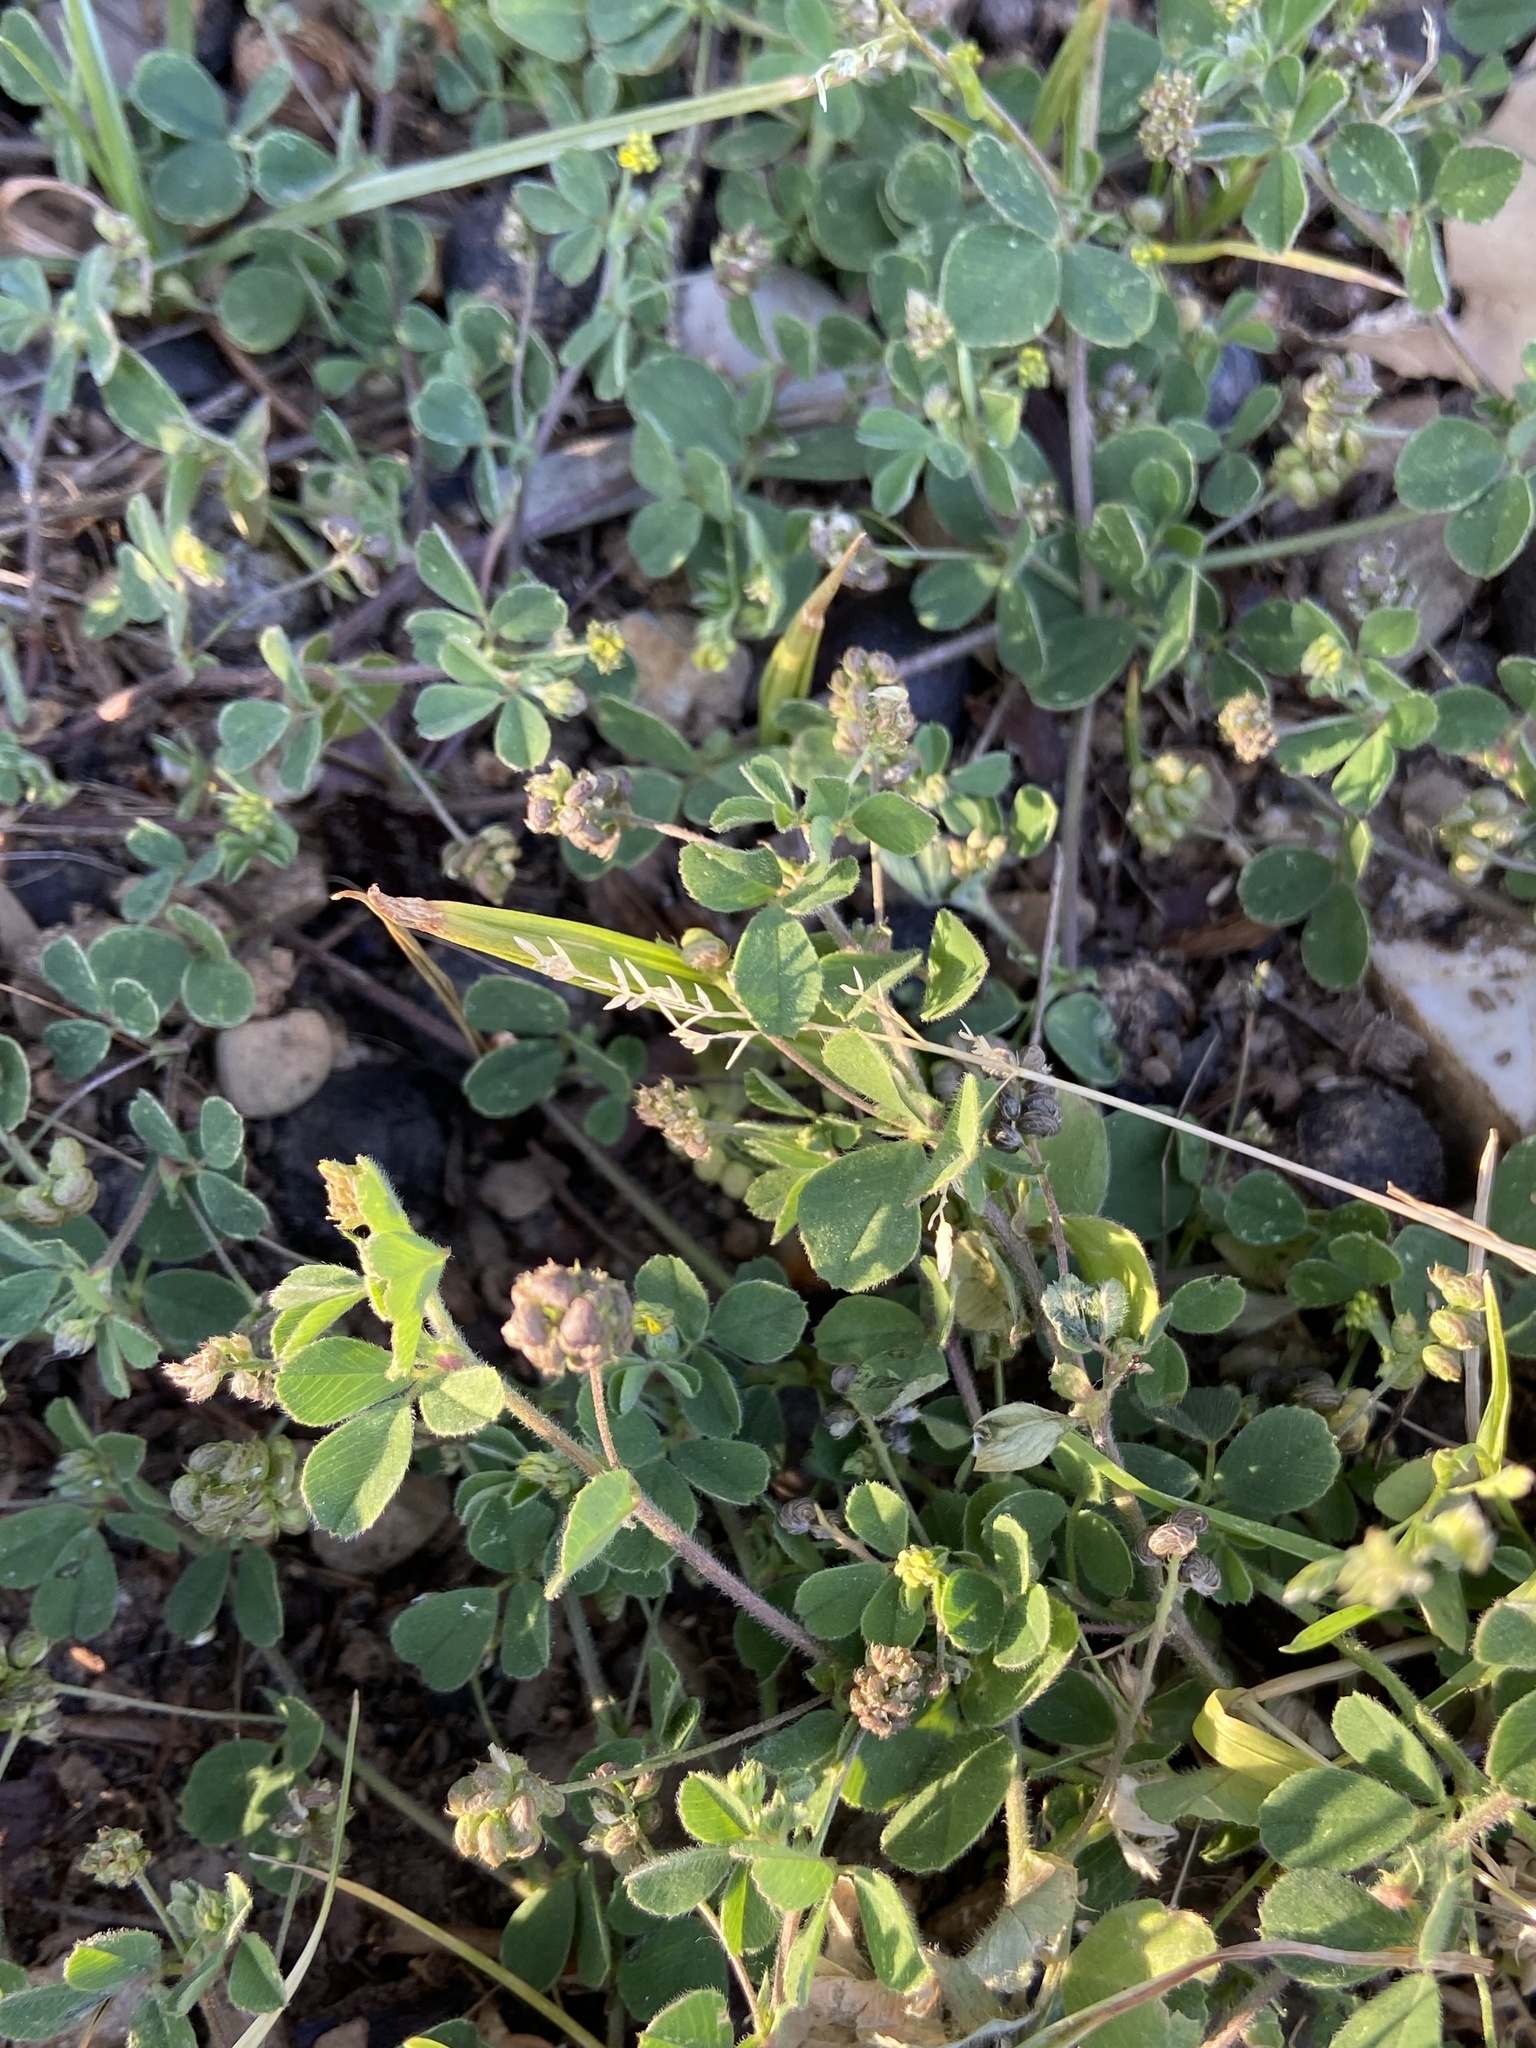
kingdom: Plantae
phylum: Tracheophyta
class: Magnoliopsida
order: Fabales
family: Fabaceae
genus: Medicago
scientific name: Medicago lupulina
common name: Black medick
